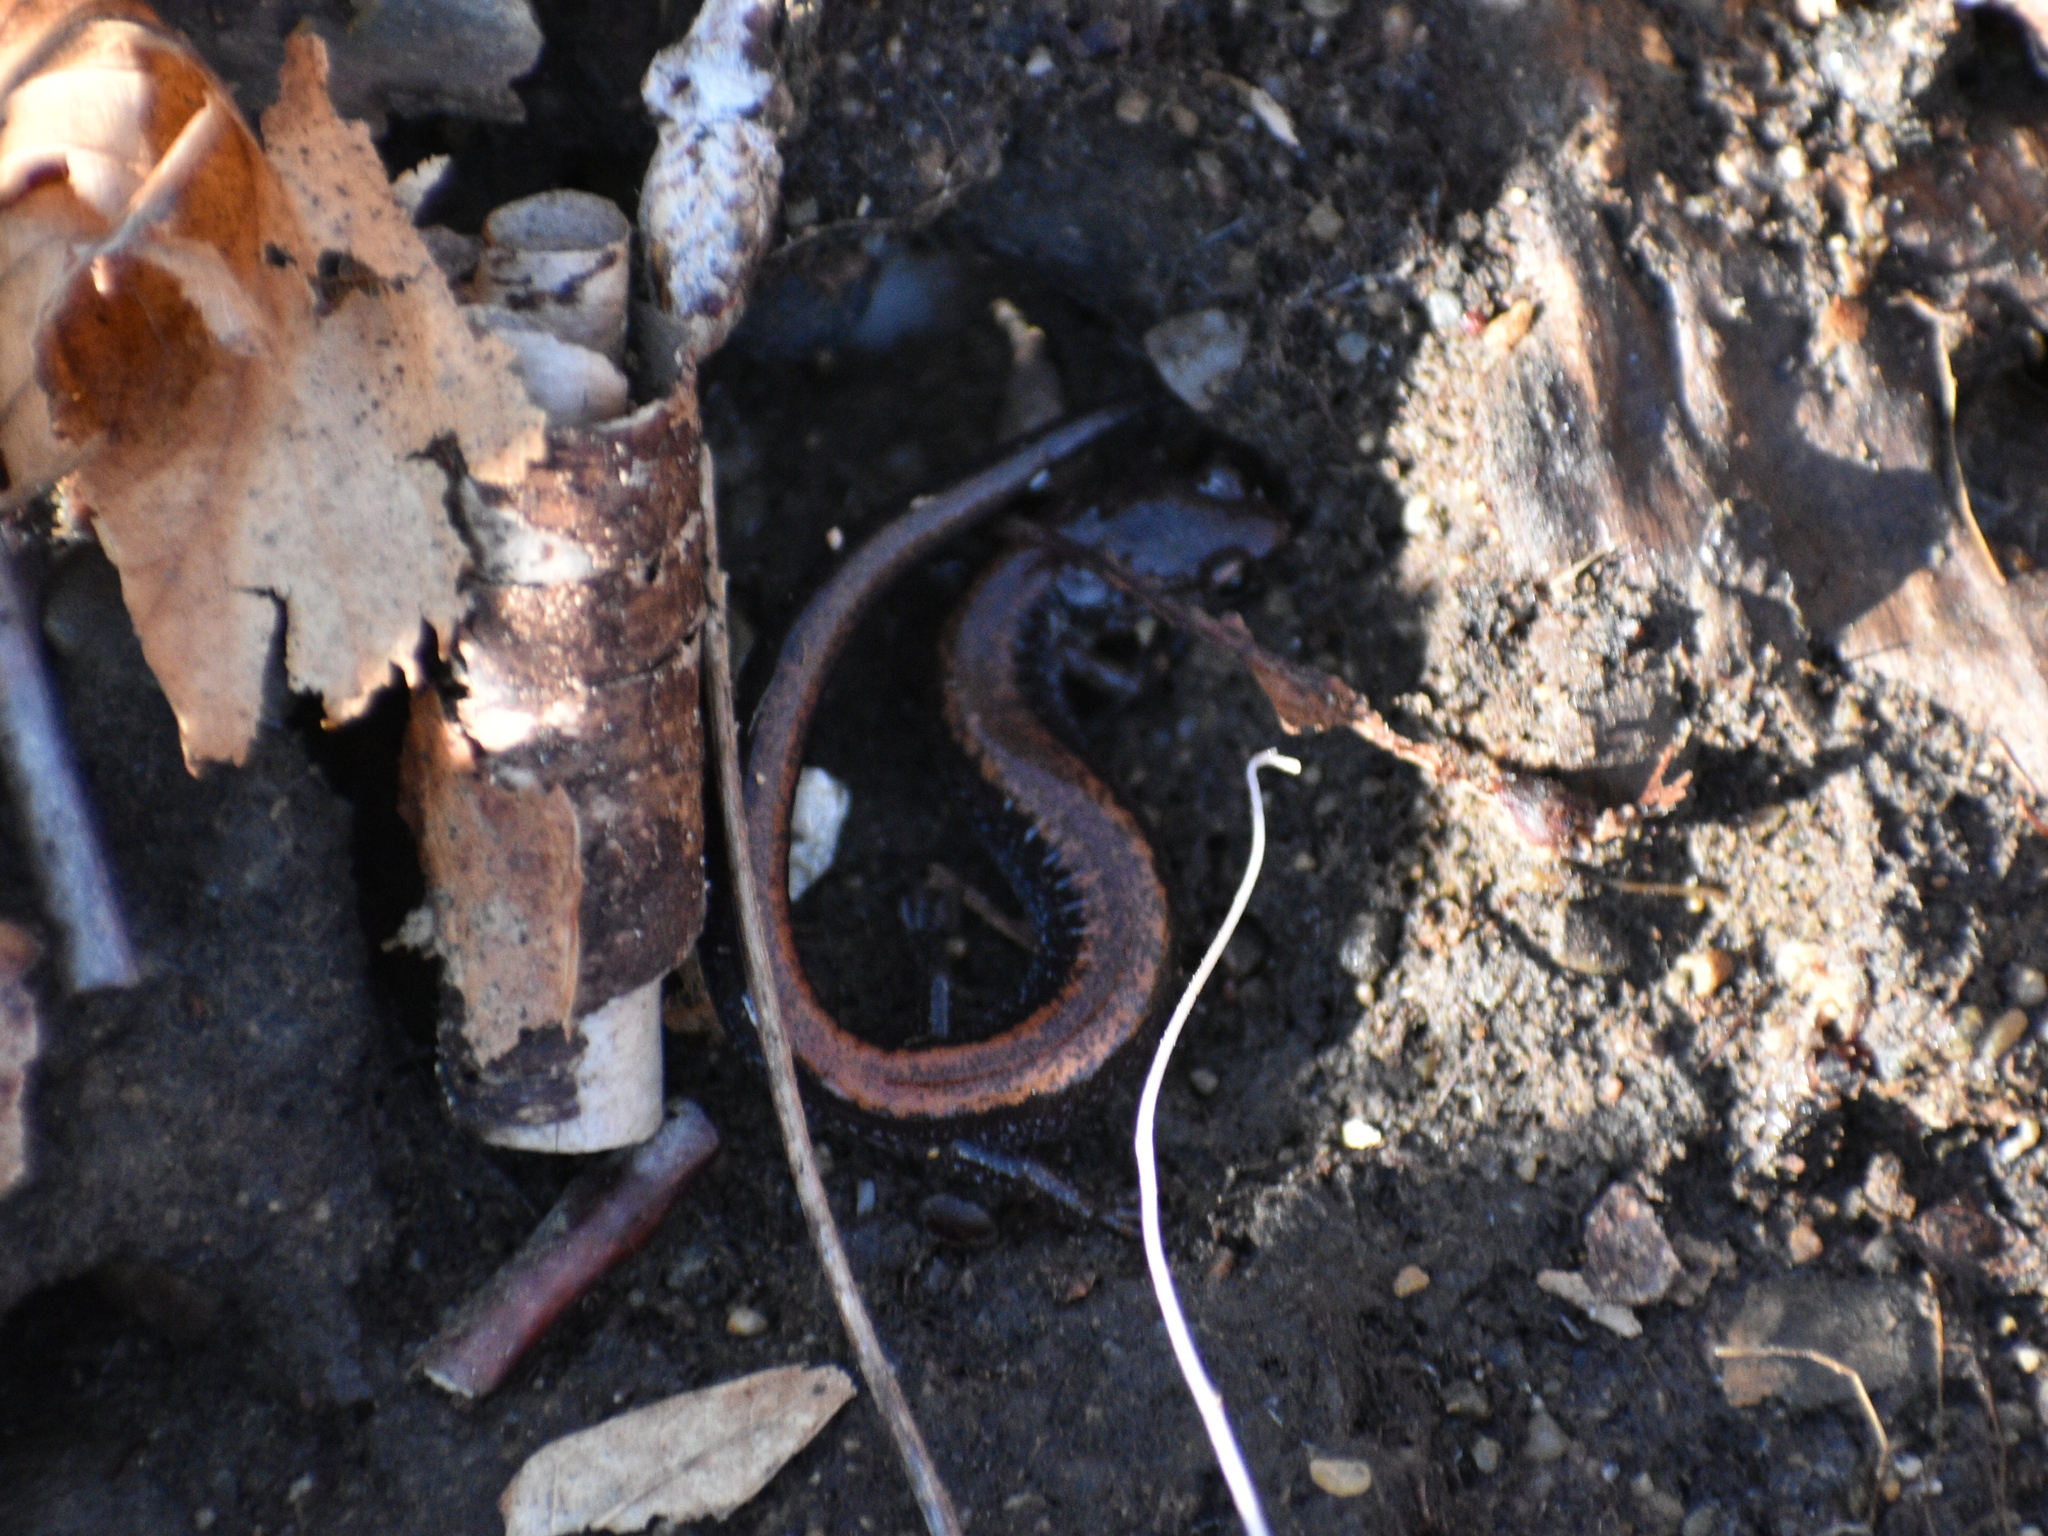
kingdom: Animalia
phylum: Chordata
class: Amphibia
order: Caudata
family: Plethodontidae
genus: Plethodon
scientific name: Plethodon cinereus
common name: Redback salamander
